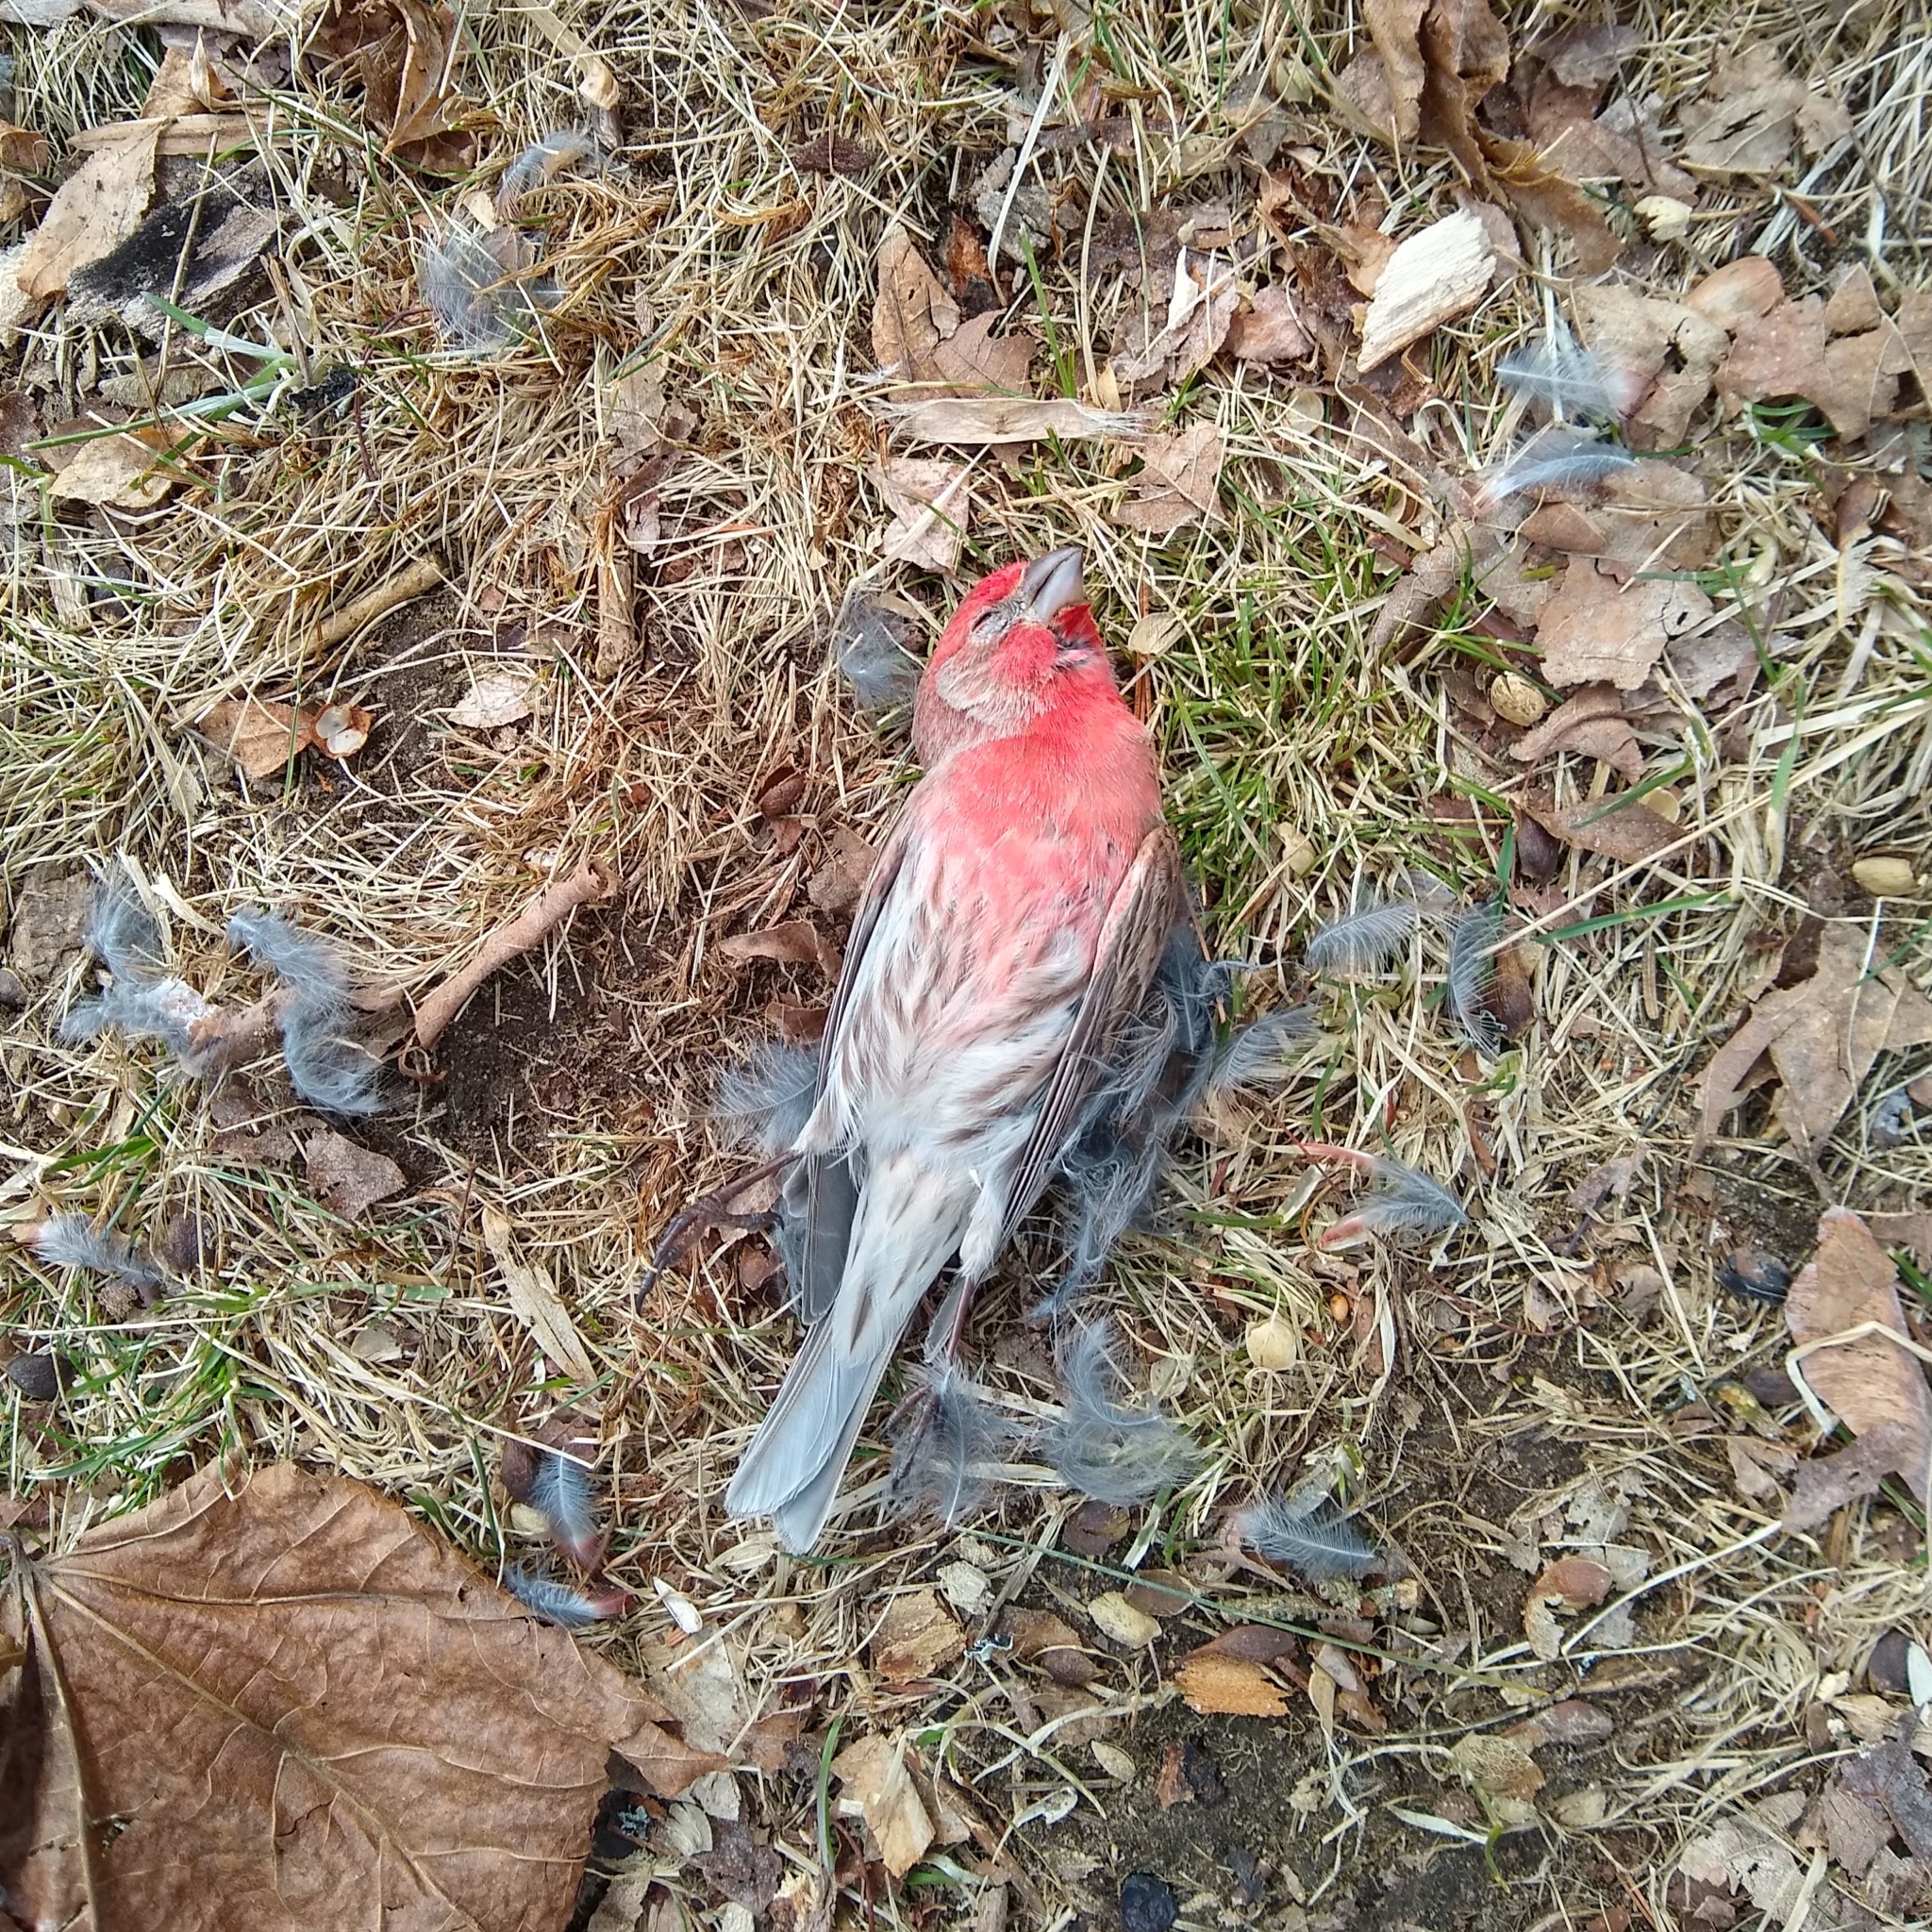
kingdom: Animalia
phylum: Chordata
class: Aves
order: Passeriformes
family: Fringillidae
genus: Haemorhous
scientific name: Haemorhous mexicanus
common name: House finch
